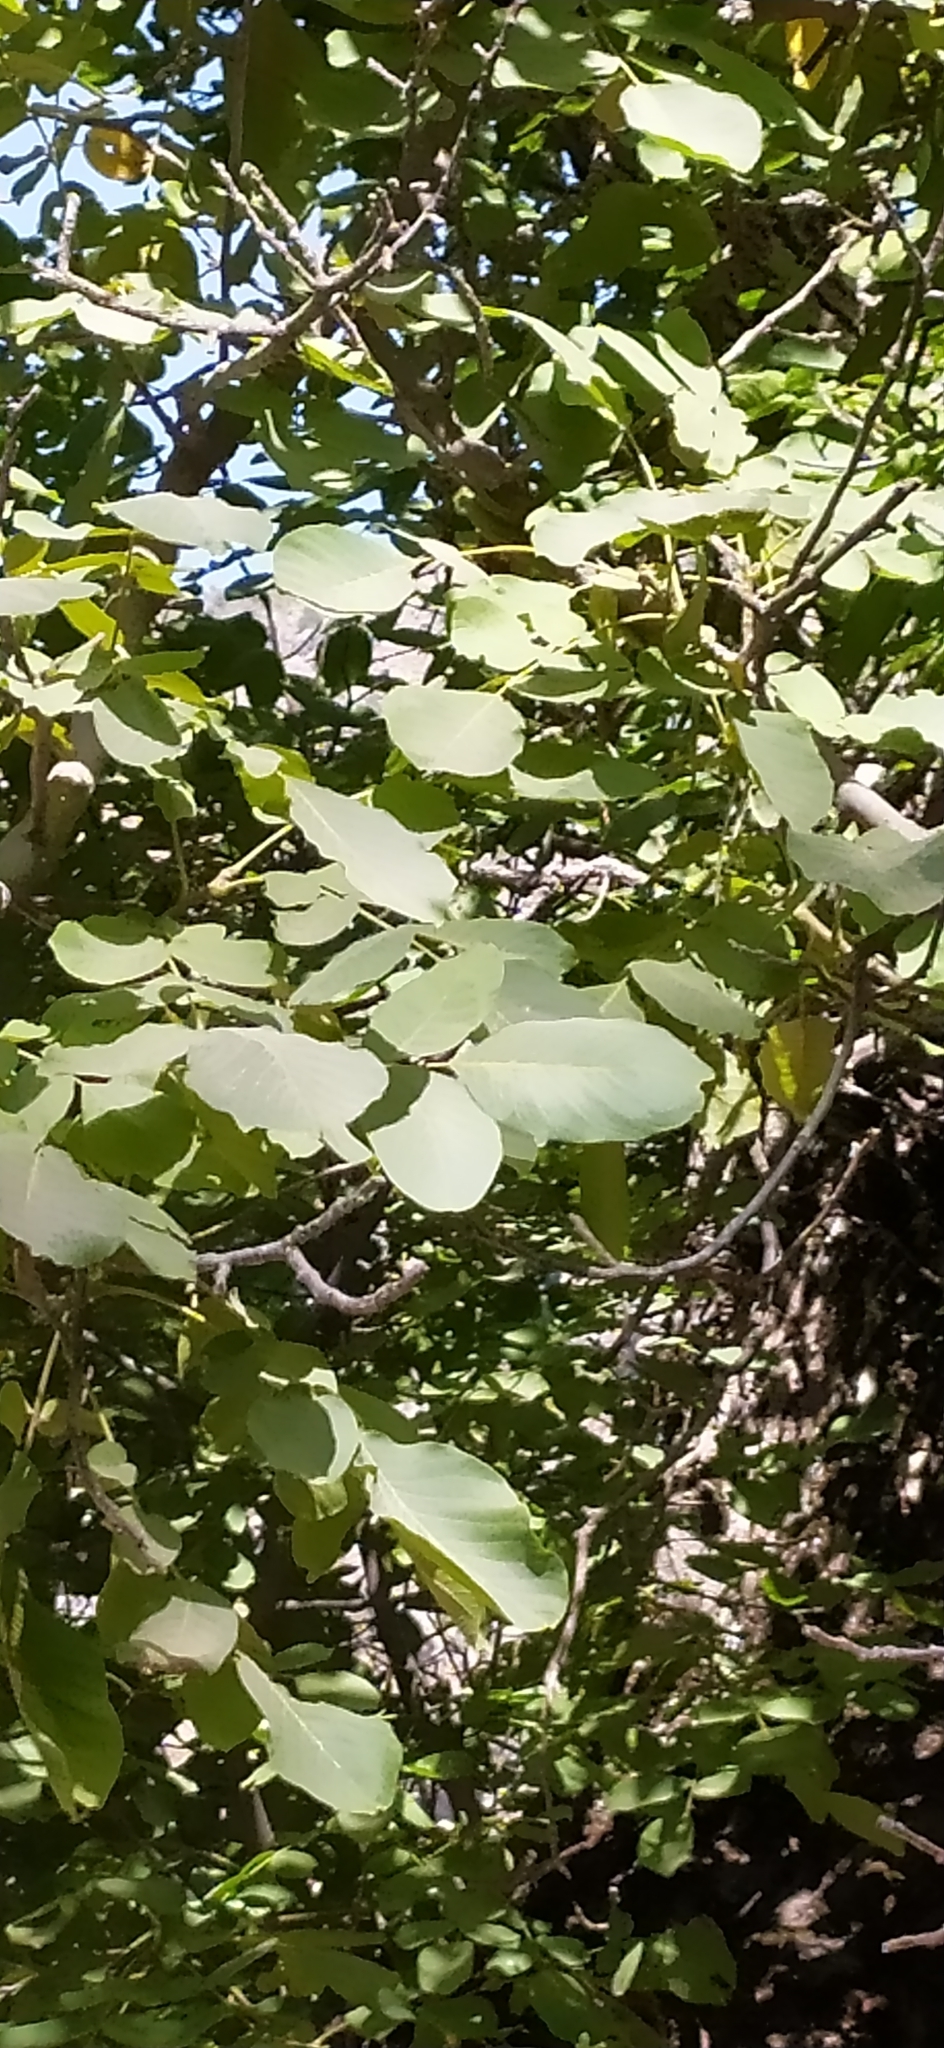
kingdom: Plantae
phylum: Tracheophyta
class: Magnoliopsida
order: Fagales
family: Juglandaceae
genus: Juglans
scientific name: Juglans regia
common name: Walnut
